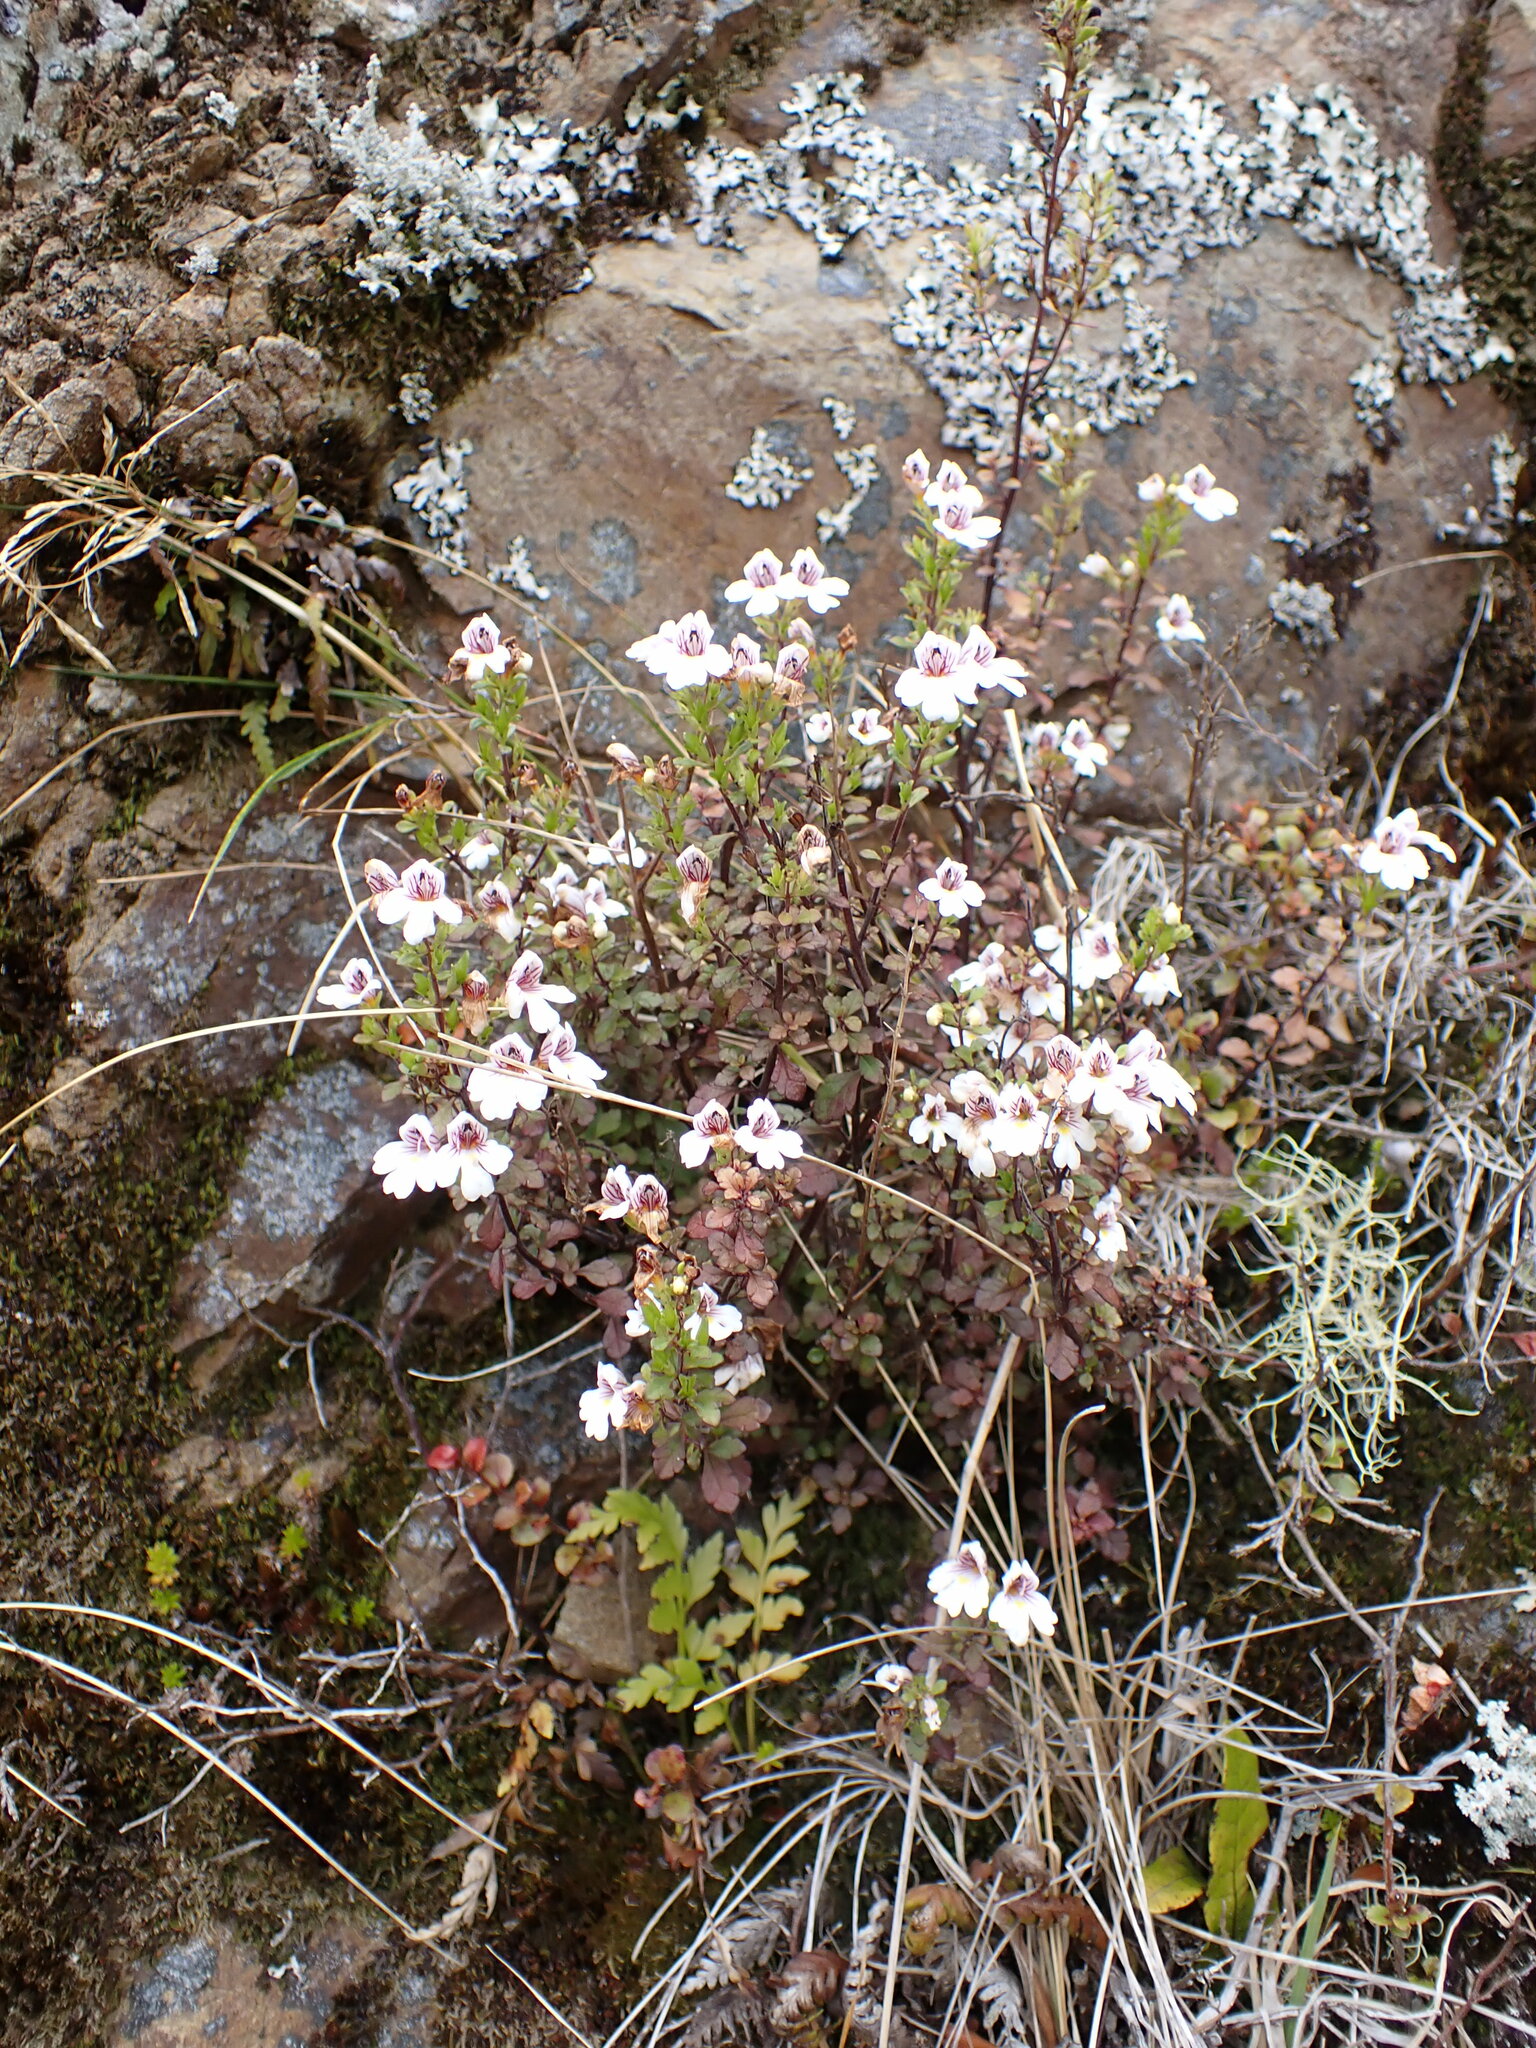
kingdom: Plantae
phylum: Tracheophyta
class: Magnoliopsida
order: Lamiales
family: Orobanchaceae
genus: Euphrasia
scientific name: Euphrasia cuneata
